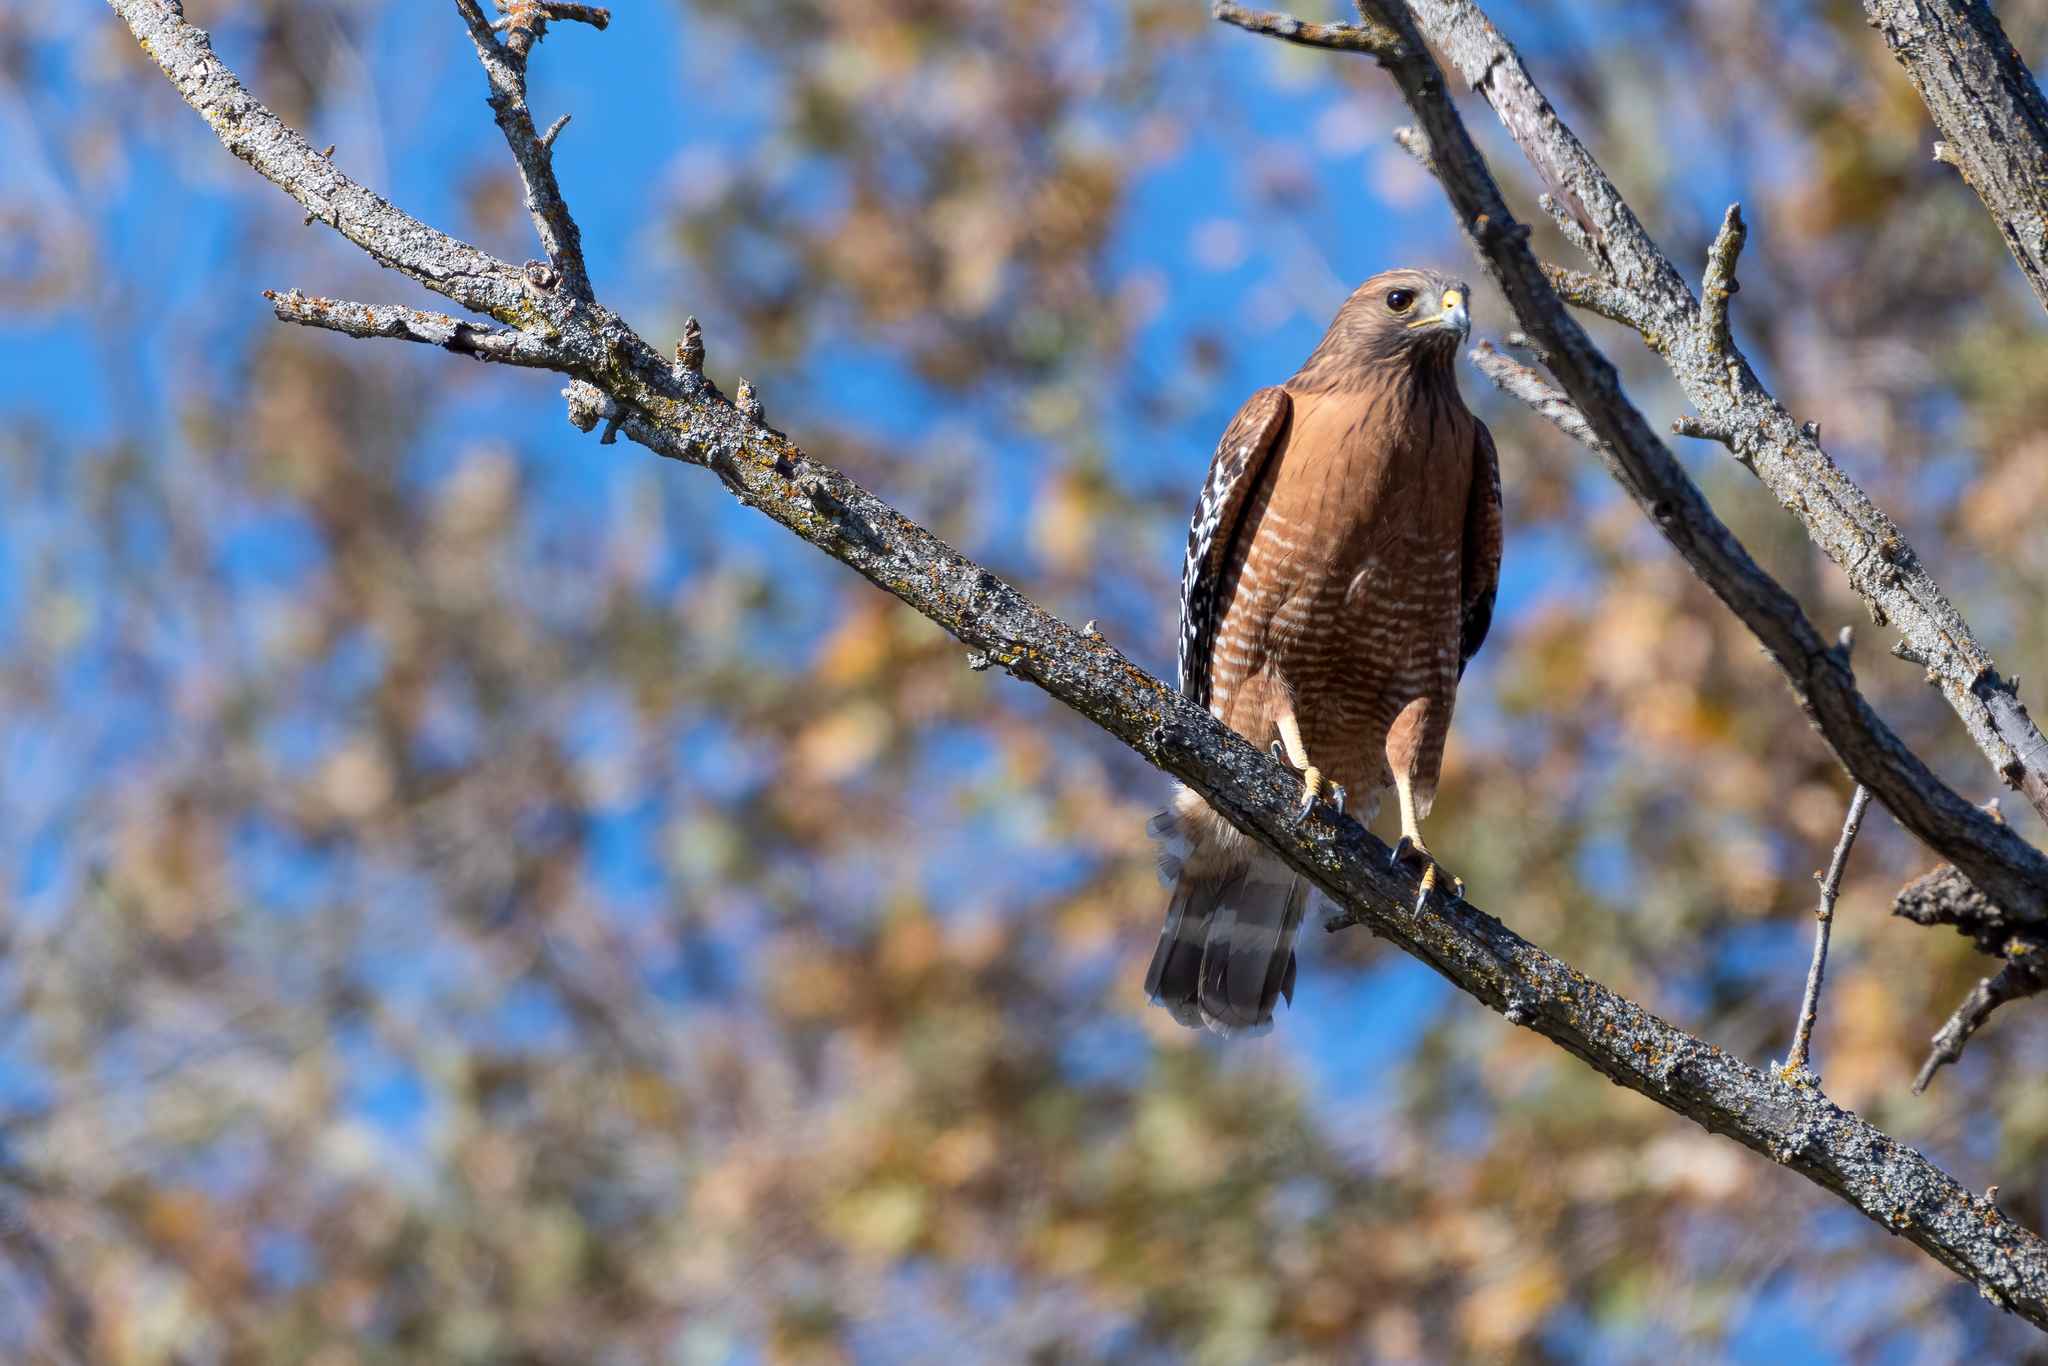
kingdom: Animalia
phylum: Chordata
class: Aves
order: Accipitriformes
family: Accipitridae
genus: Buteo
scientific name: Buteo lineatus
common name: Red-shouldered hawk
